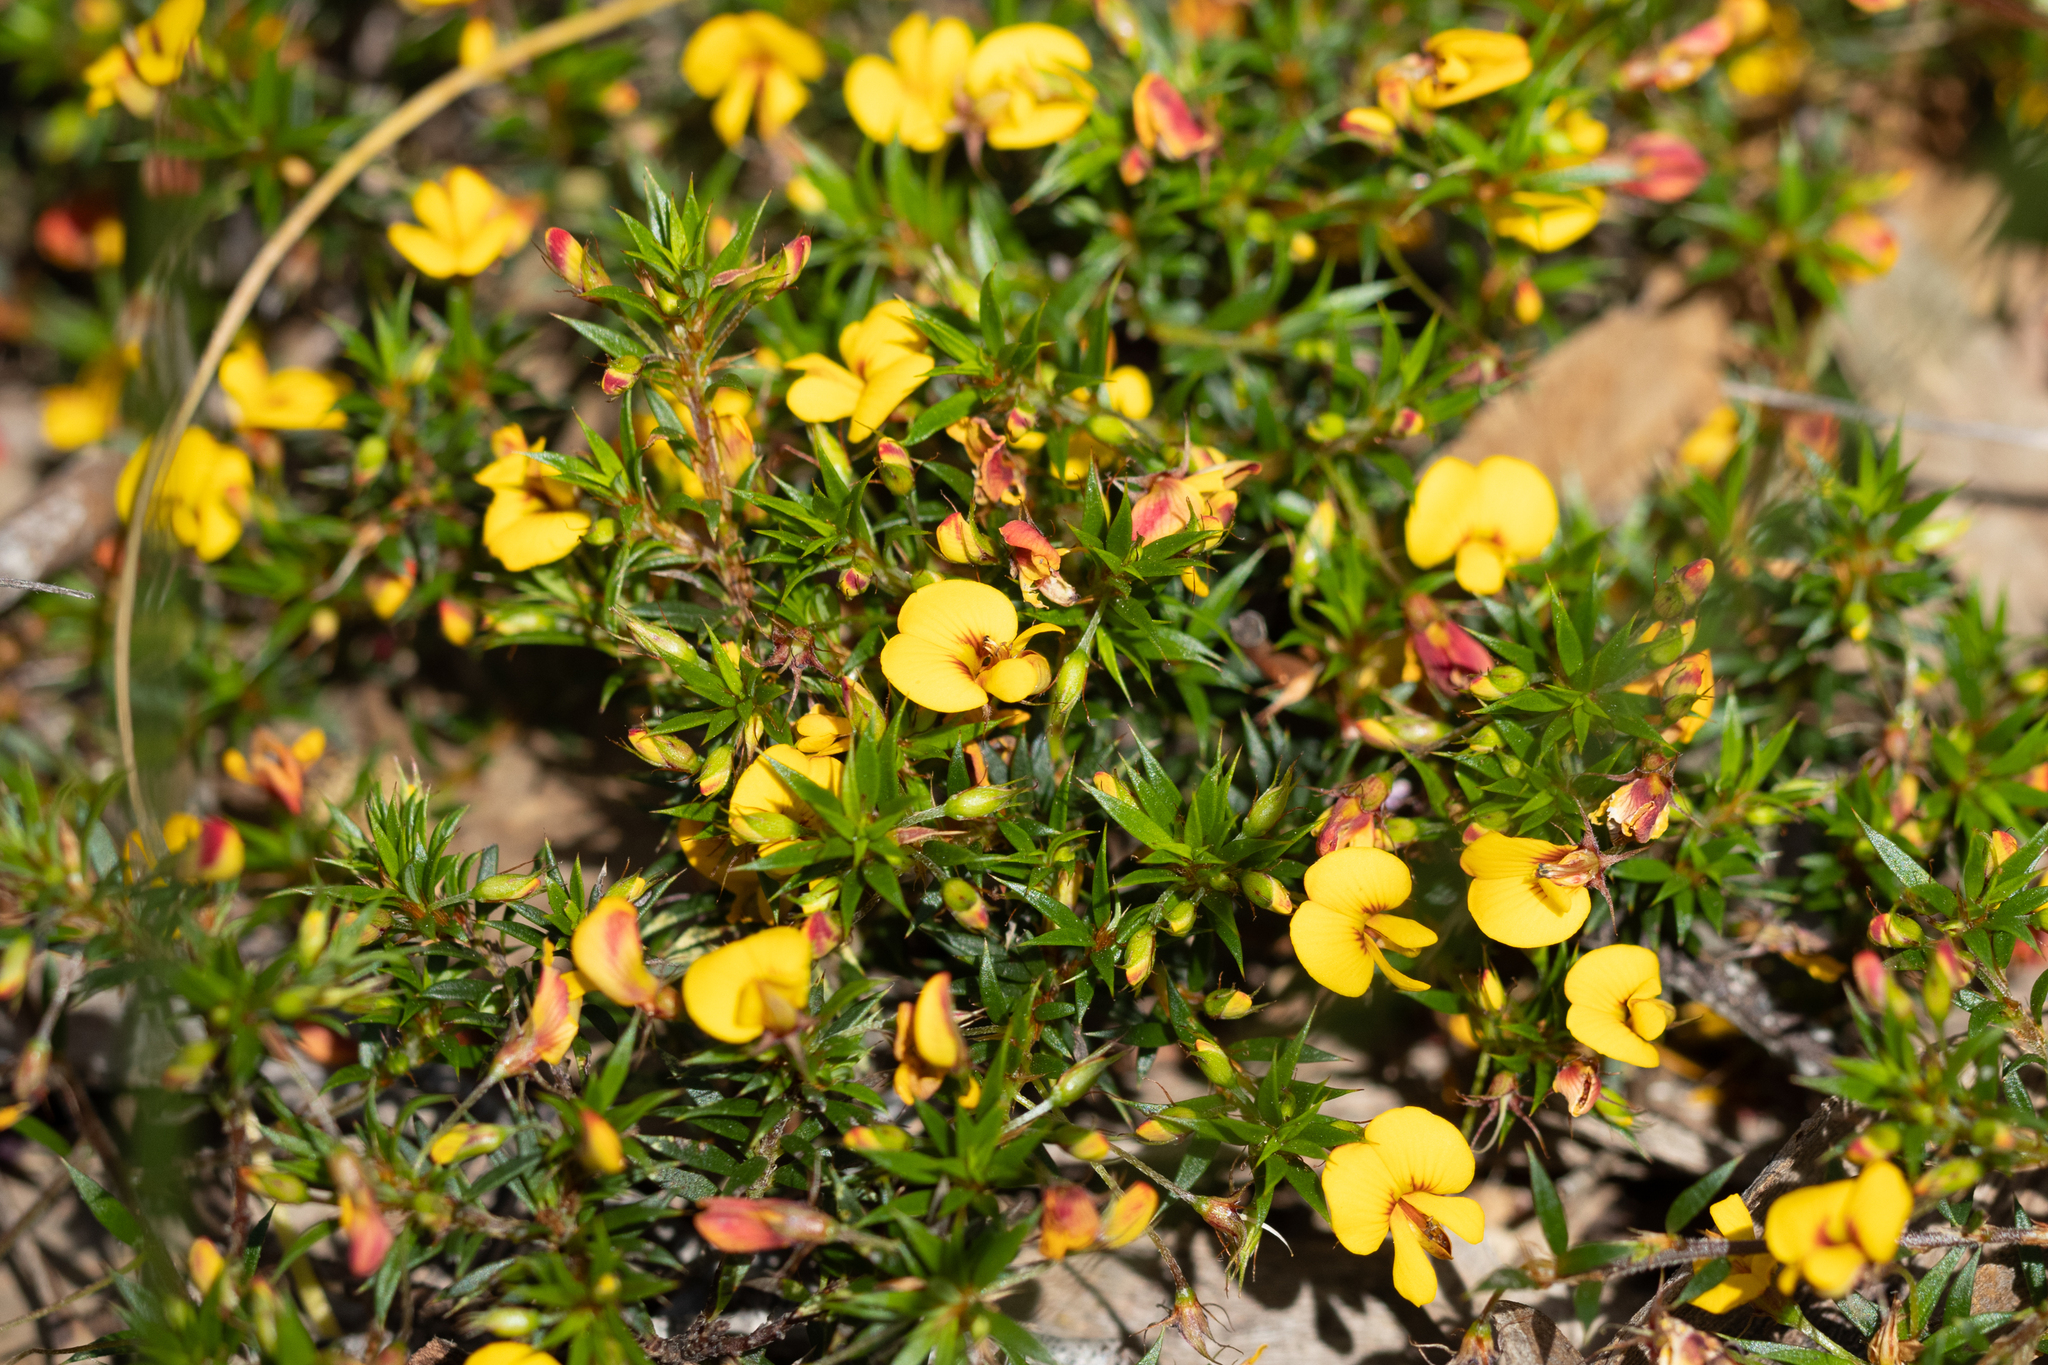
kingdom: Plantae
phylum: Tracheophyta
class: Magnoliopsida
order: Fabales
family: Fabaceae
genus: Pultenaea
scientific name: Pultenaea pedunculata
